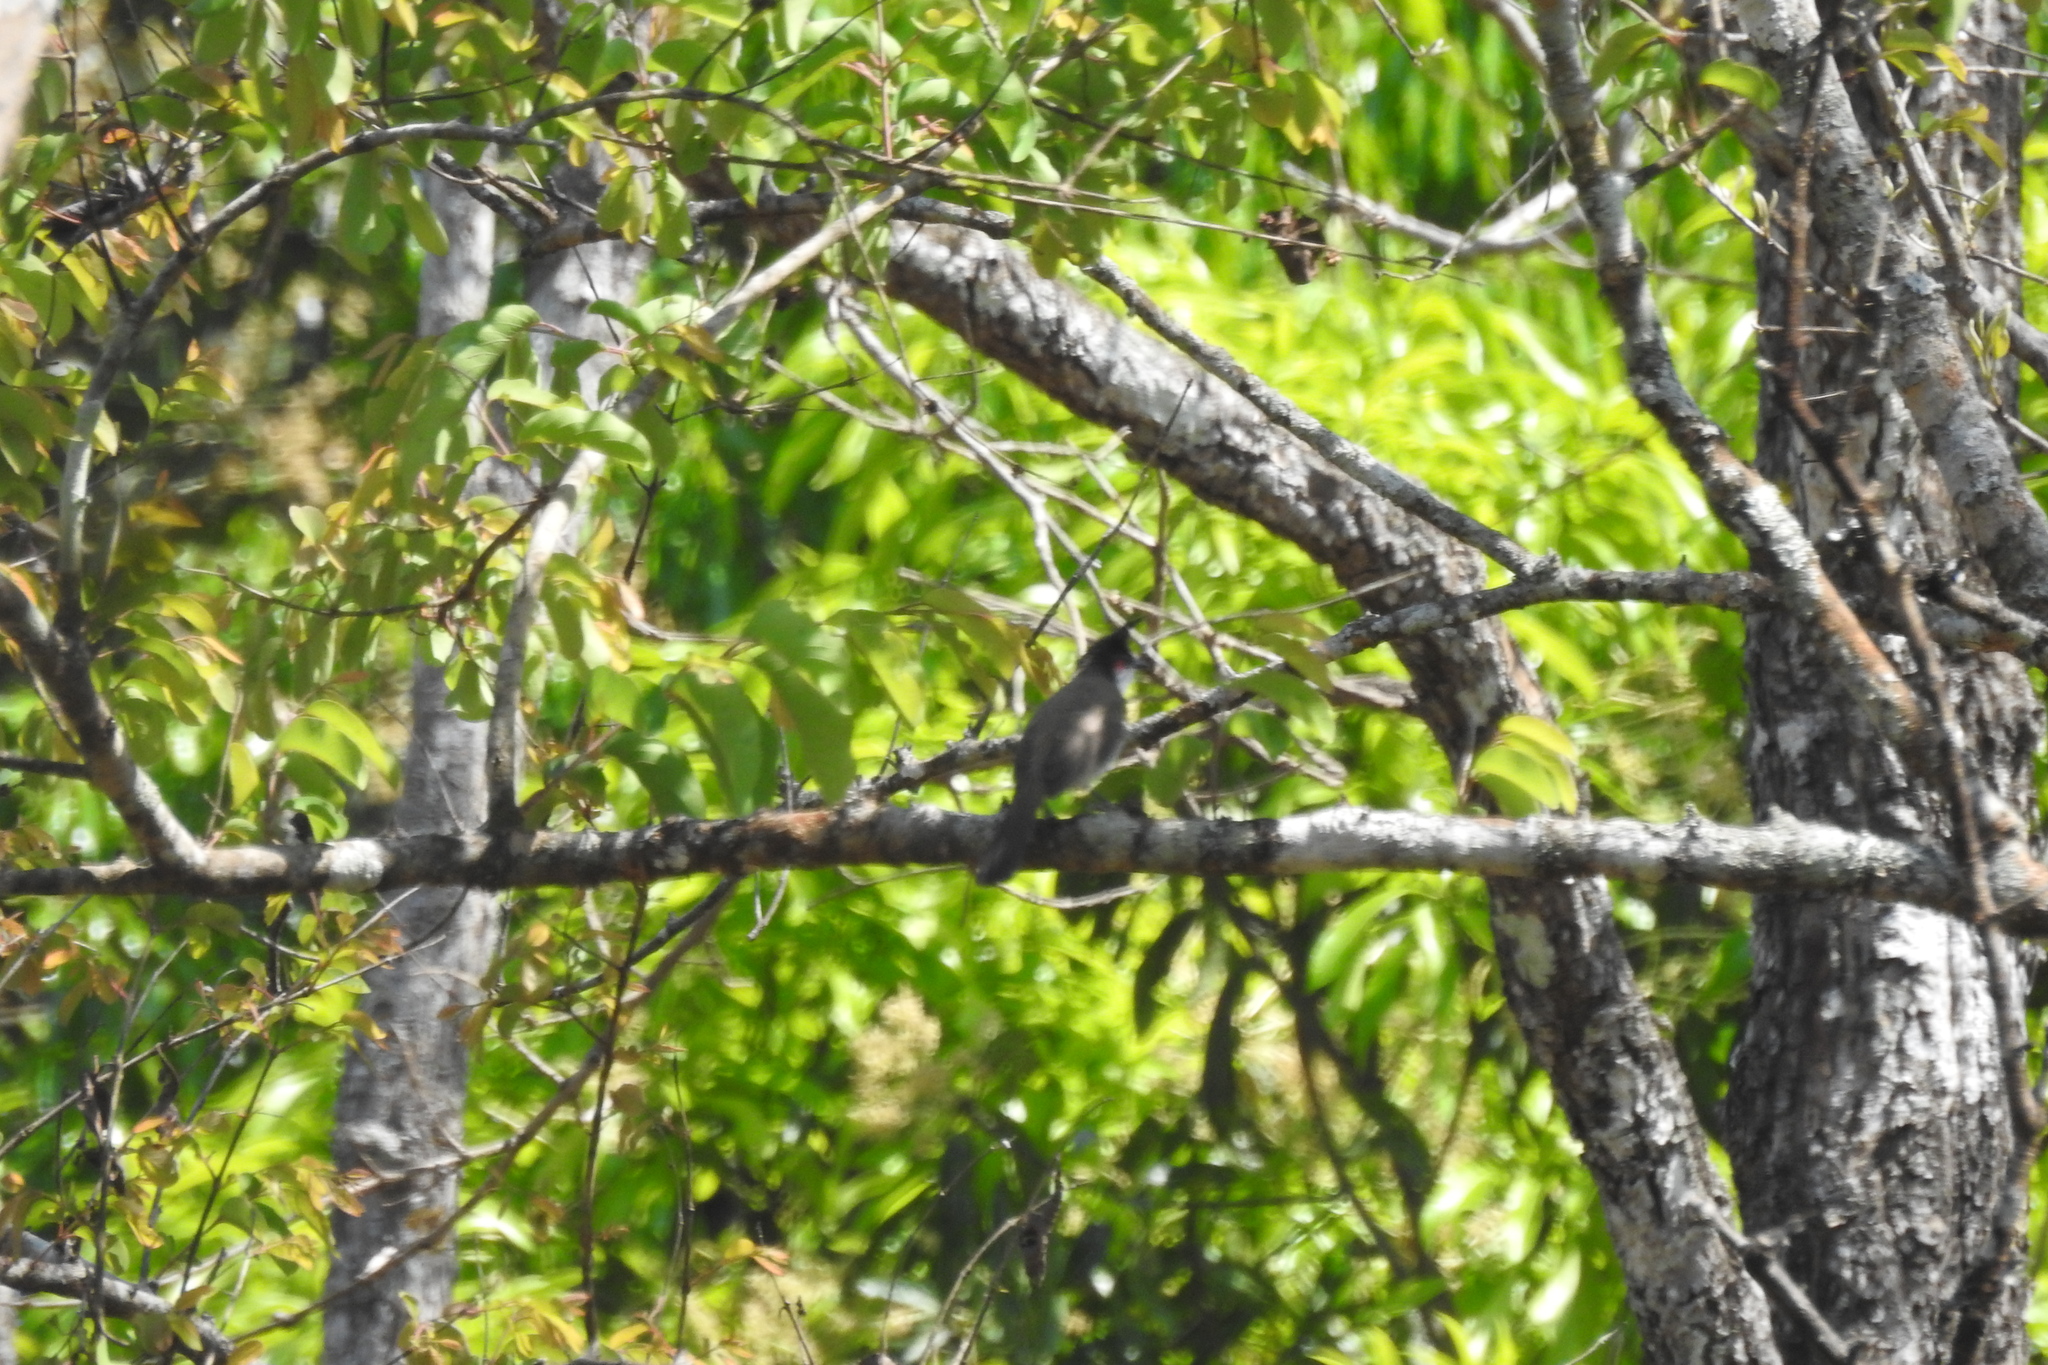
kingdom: Animalia
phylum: Chordata
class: Aves
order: Passeriformes
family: Pycnonotidae
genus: Pycnonotus
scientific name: Pycnonotus jocosus
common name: Red-whiskered bulbul
